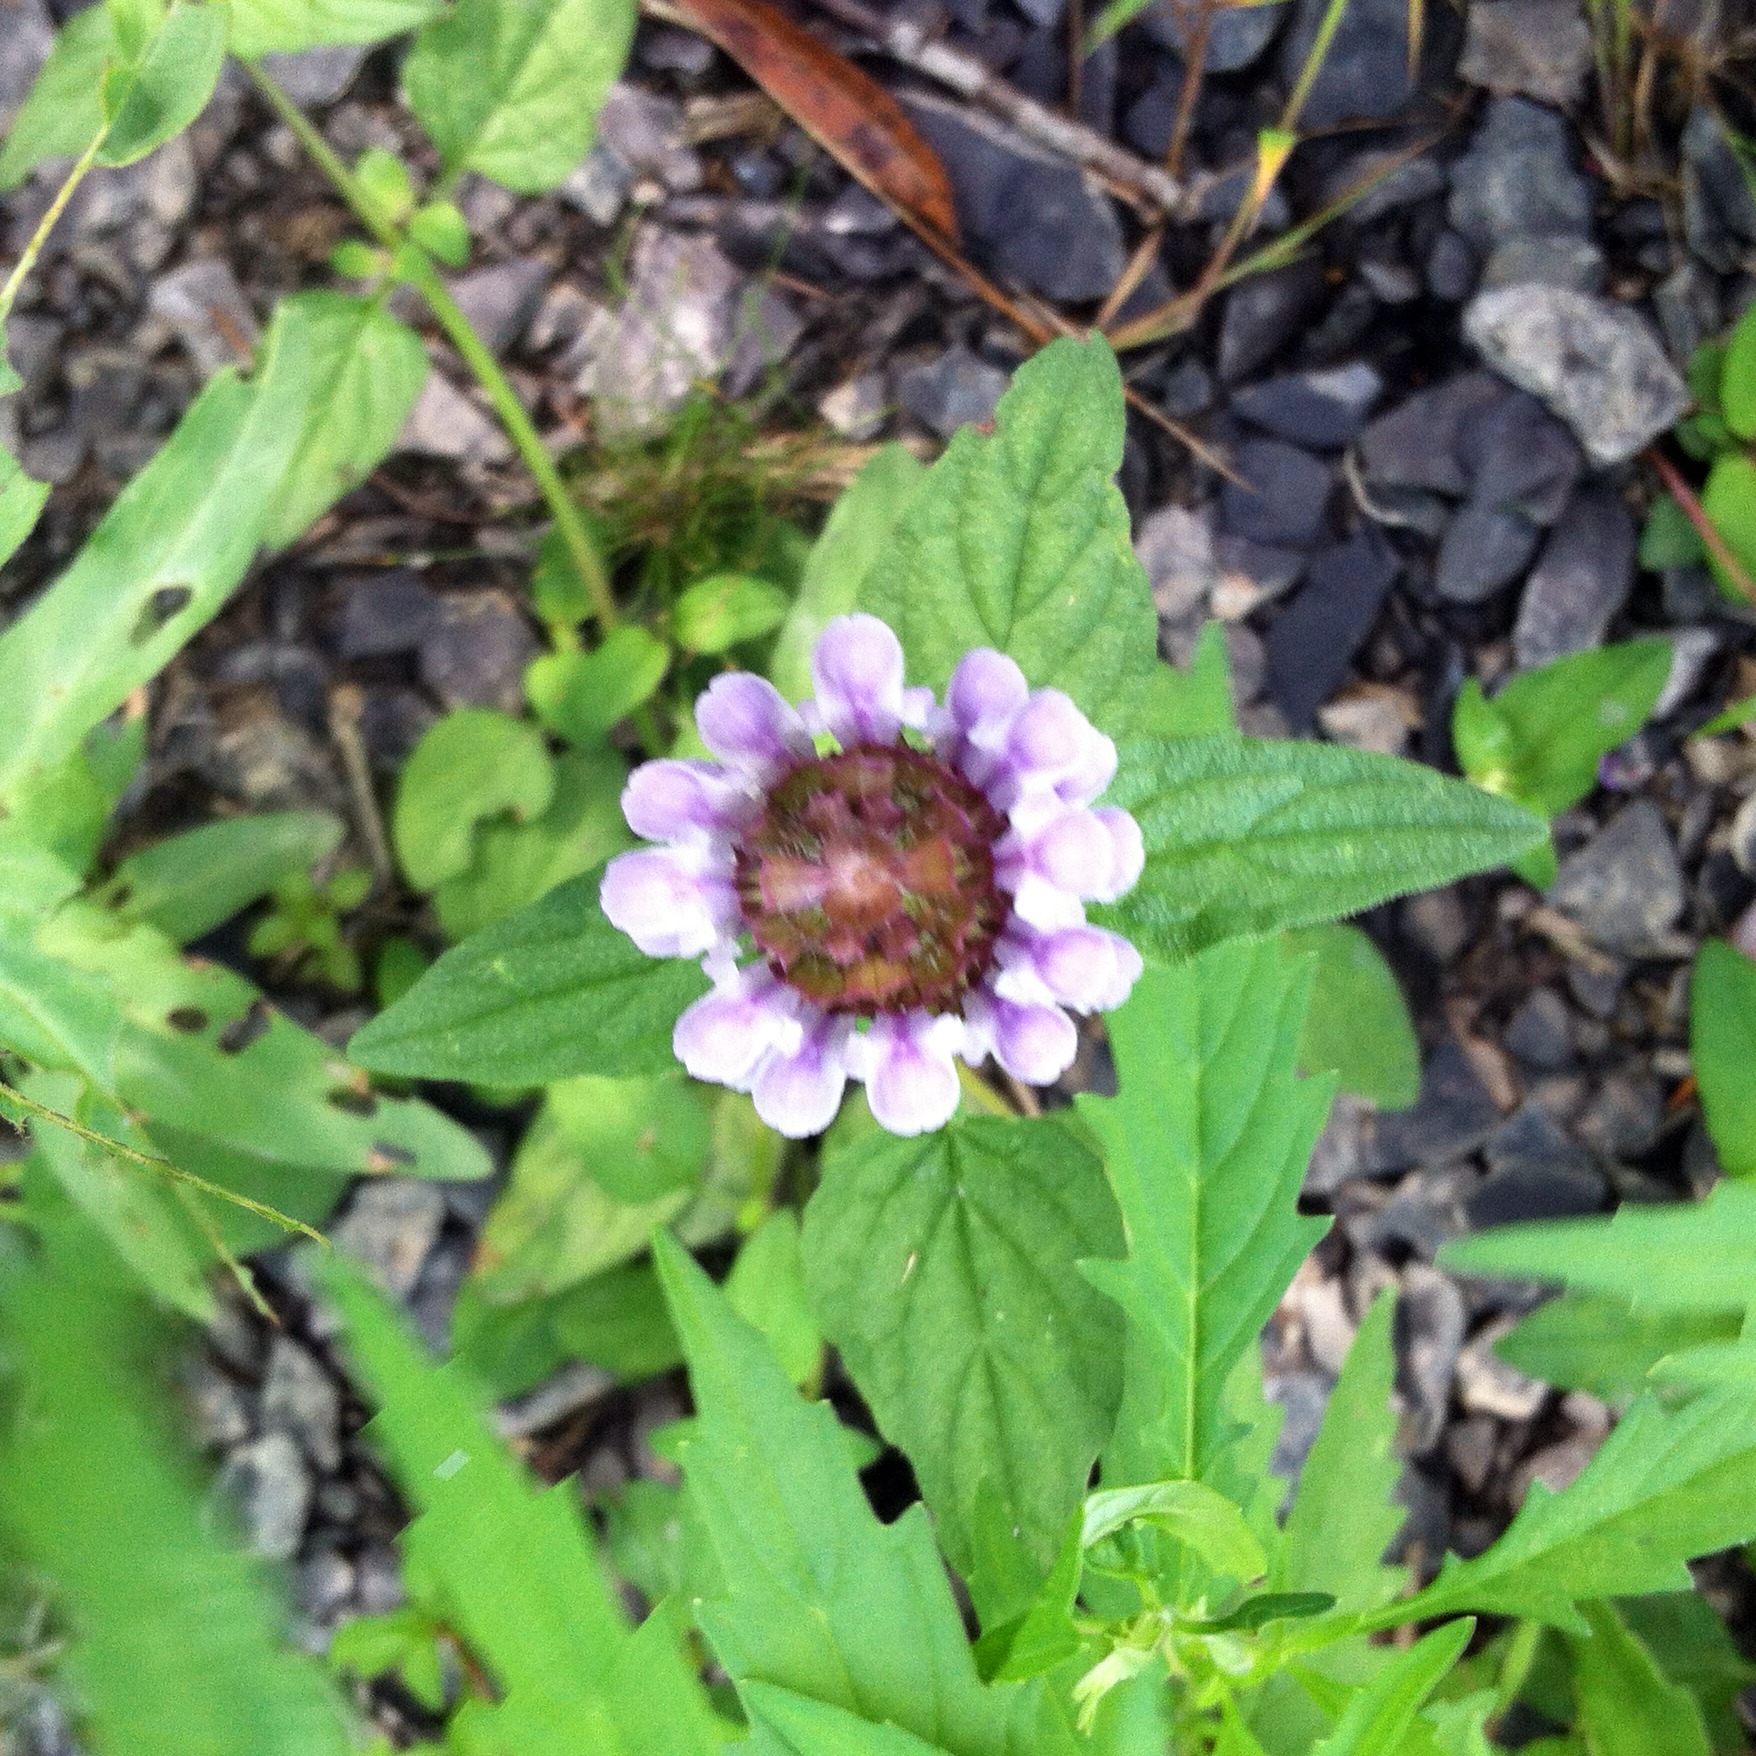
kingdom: Plantae
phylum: Tracheophyta
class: Magnoliopsida
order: Lamiales
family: Lamiaceae
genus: Prunella
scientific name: Prunella vulgaris
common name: Heal-all
